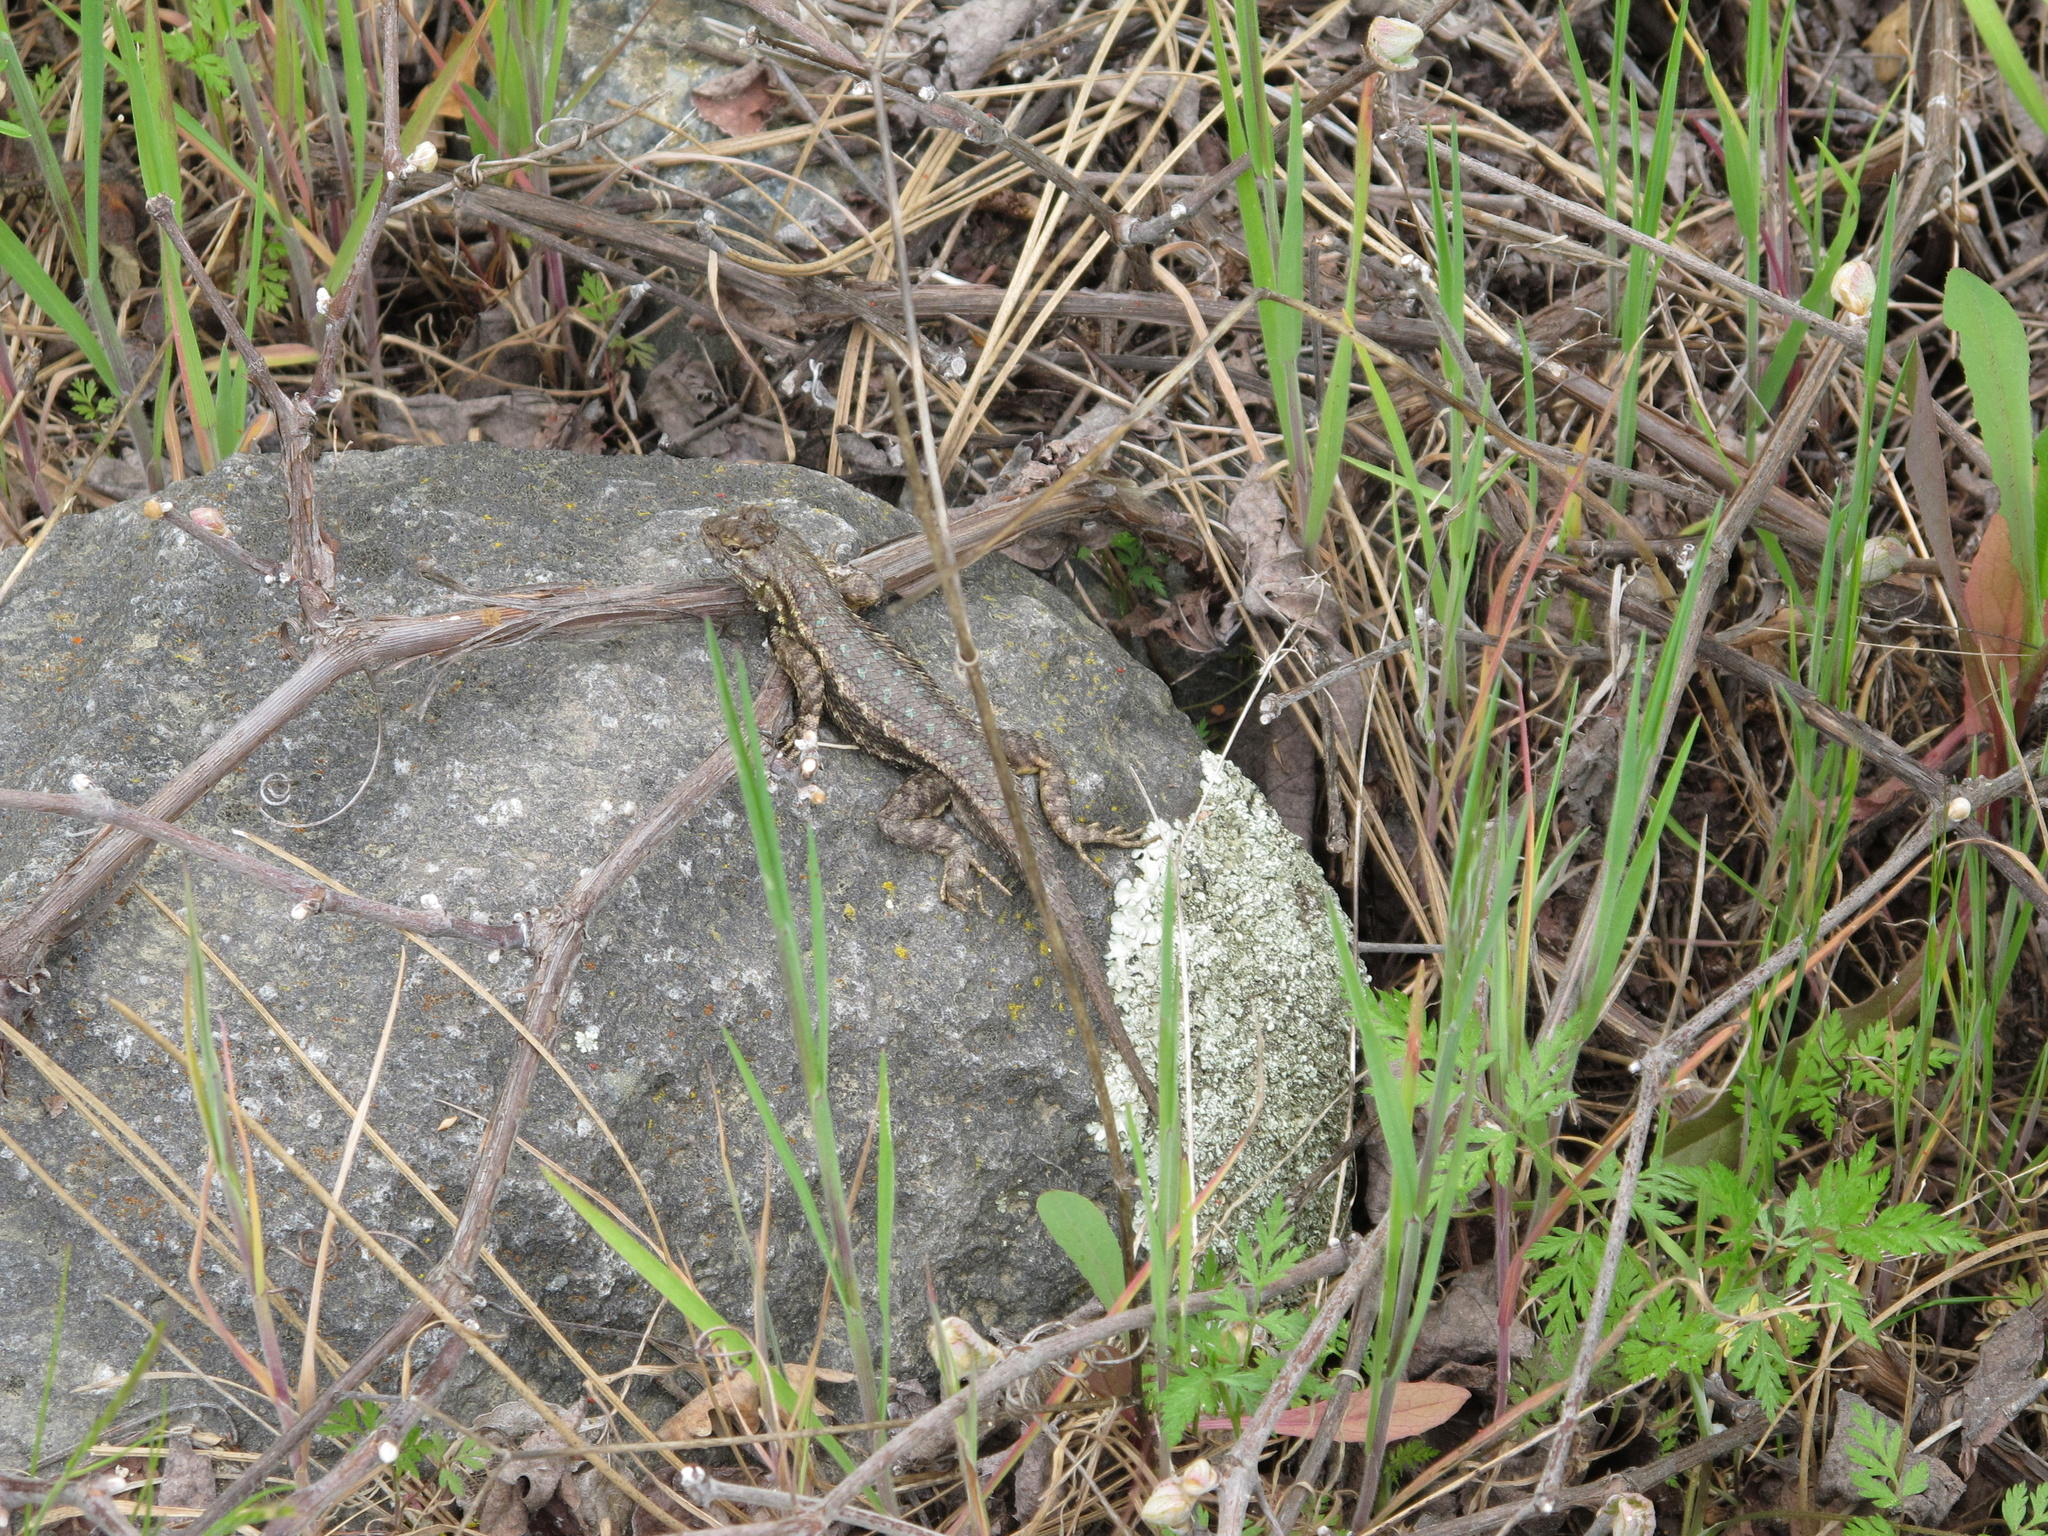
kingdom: Animalia
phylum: Chordata
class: Squamata
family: Phrynosomatidae
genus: Sceloporus
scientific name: Sceloporus occidentalis
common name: Western fence lizard
